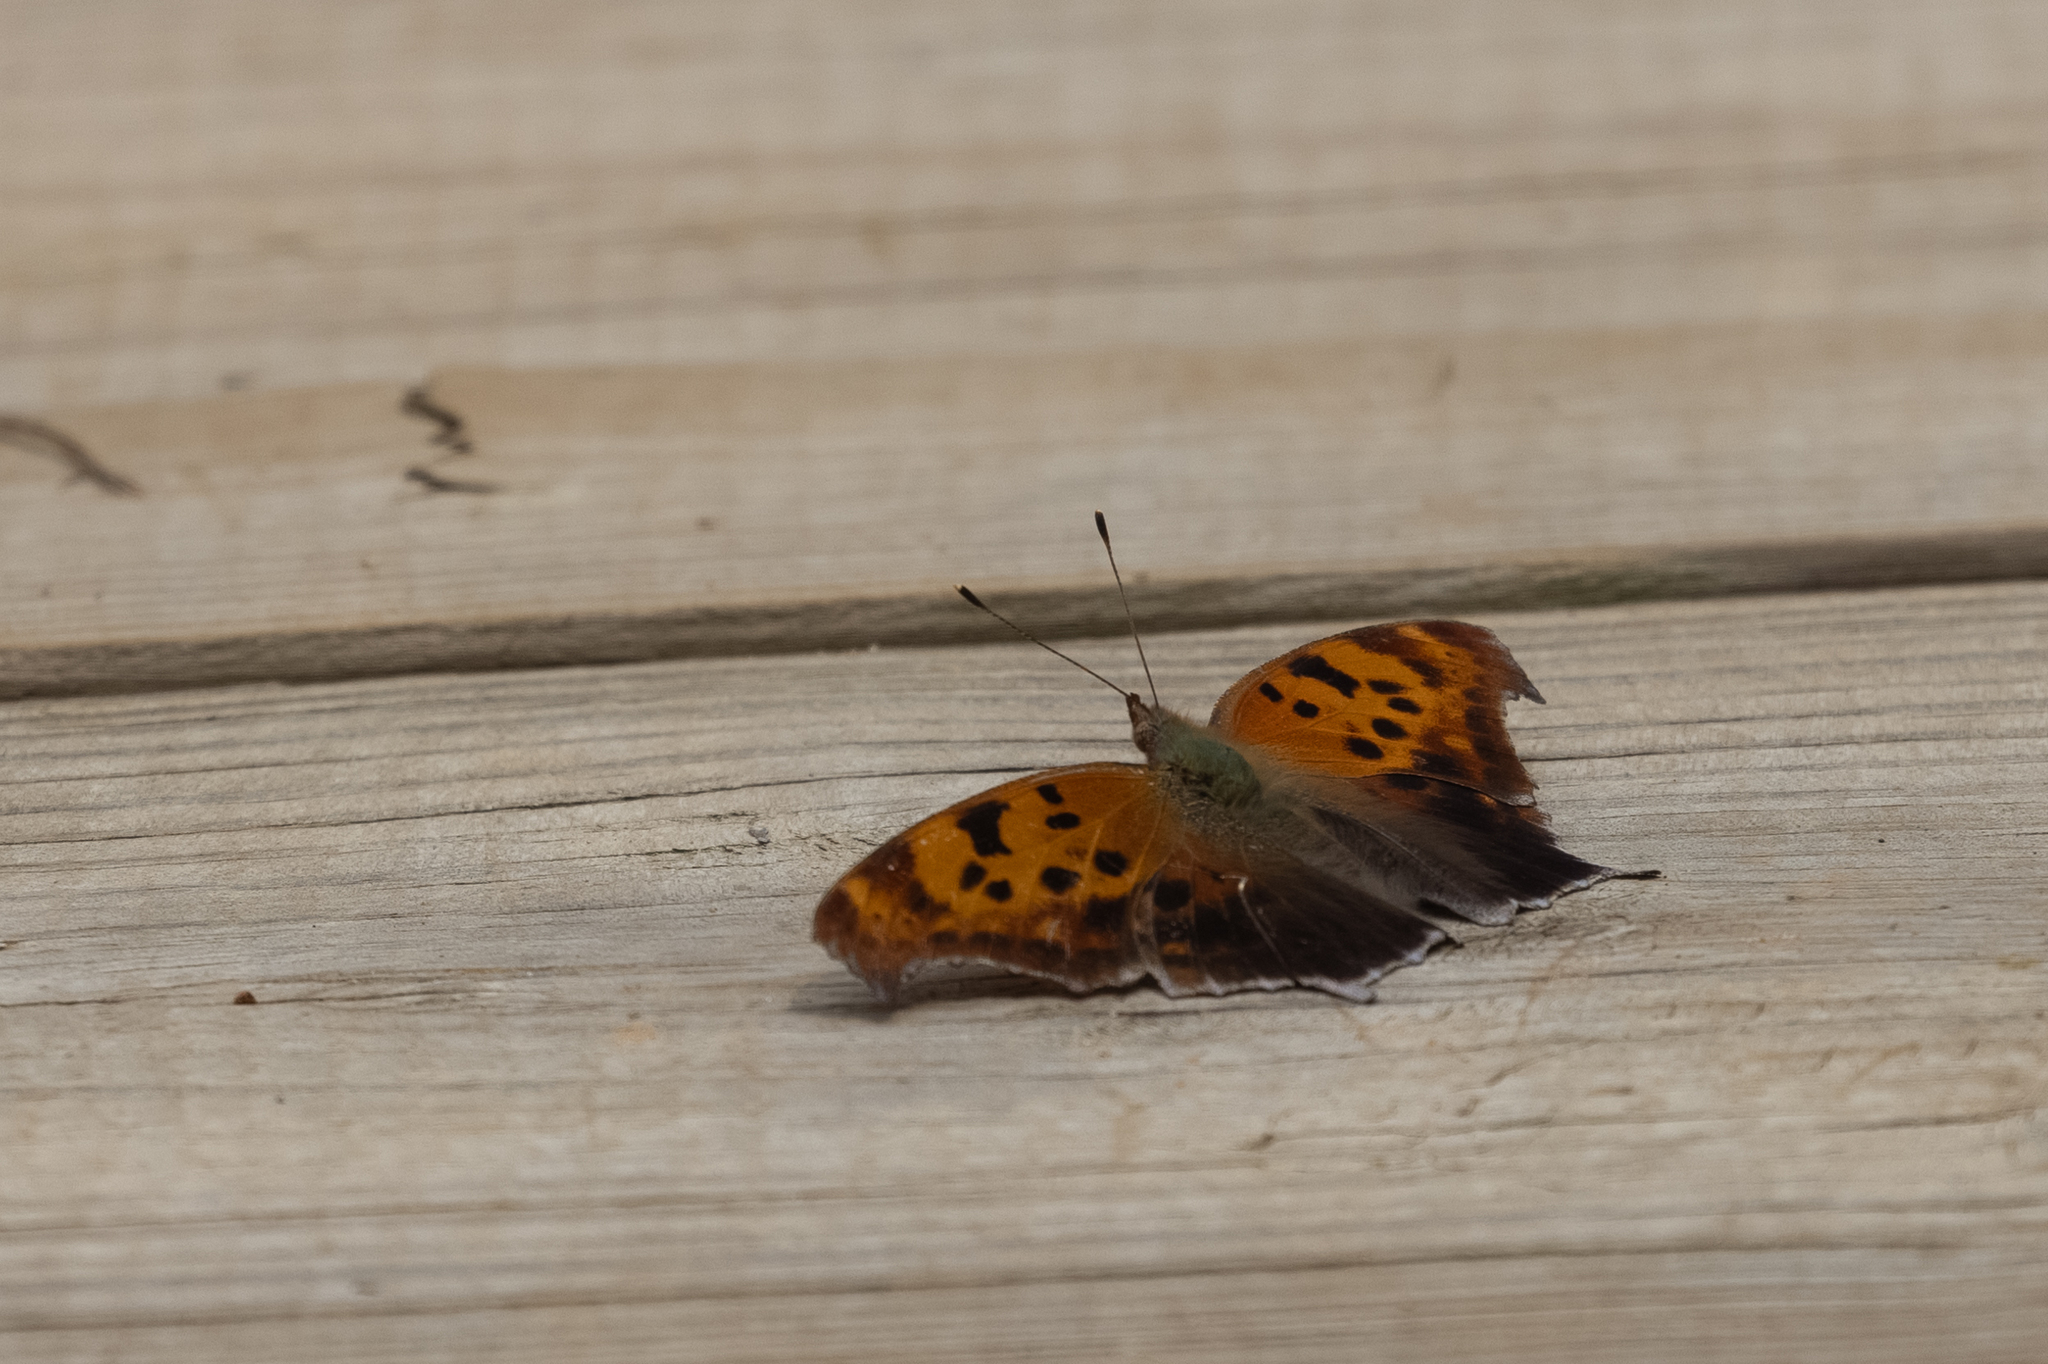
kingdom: Animalia
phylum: Arthropoda
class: Insecta
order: Lepidoptera
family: Nymphalidae
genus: Polygonia
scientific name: Polygonia interrogationis
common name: Question mark
